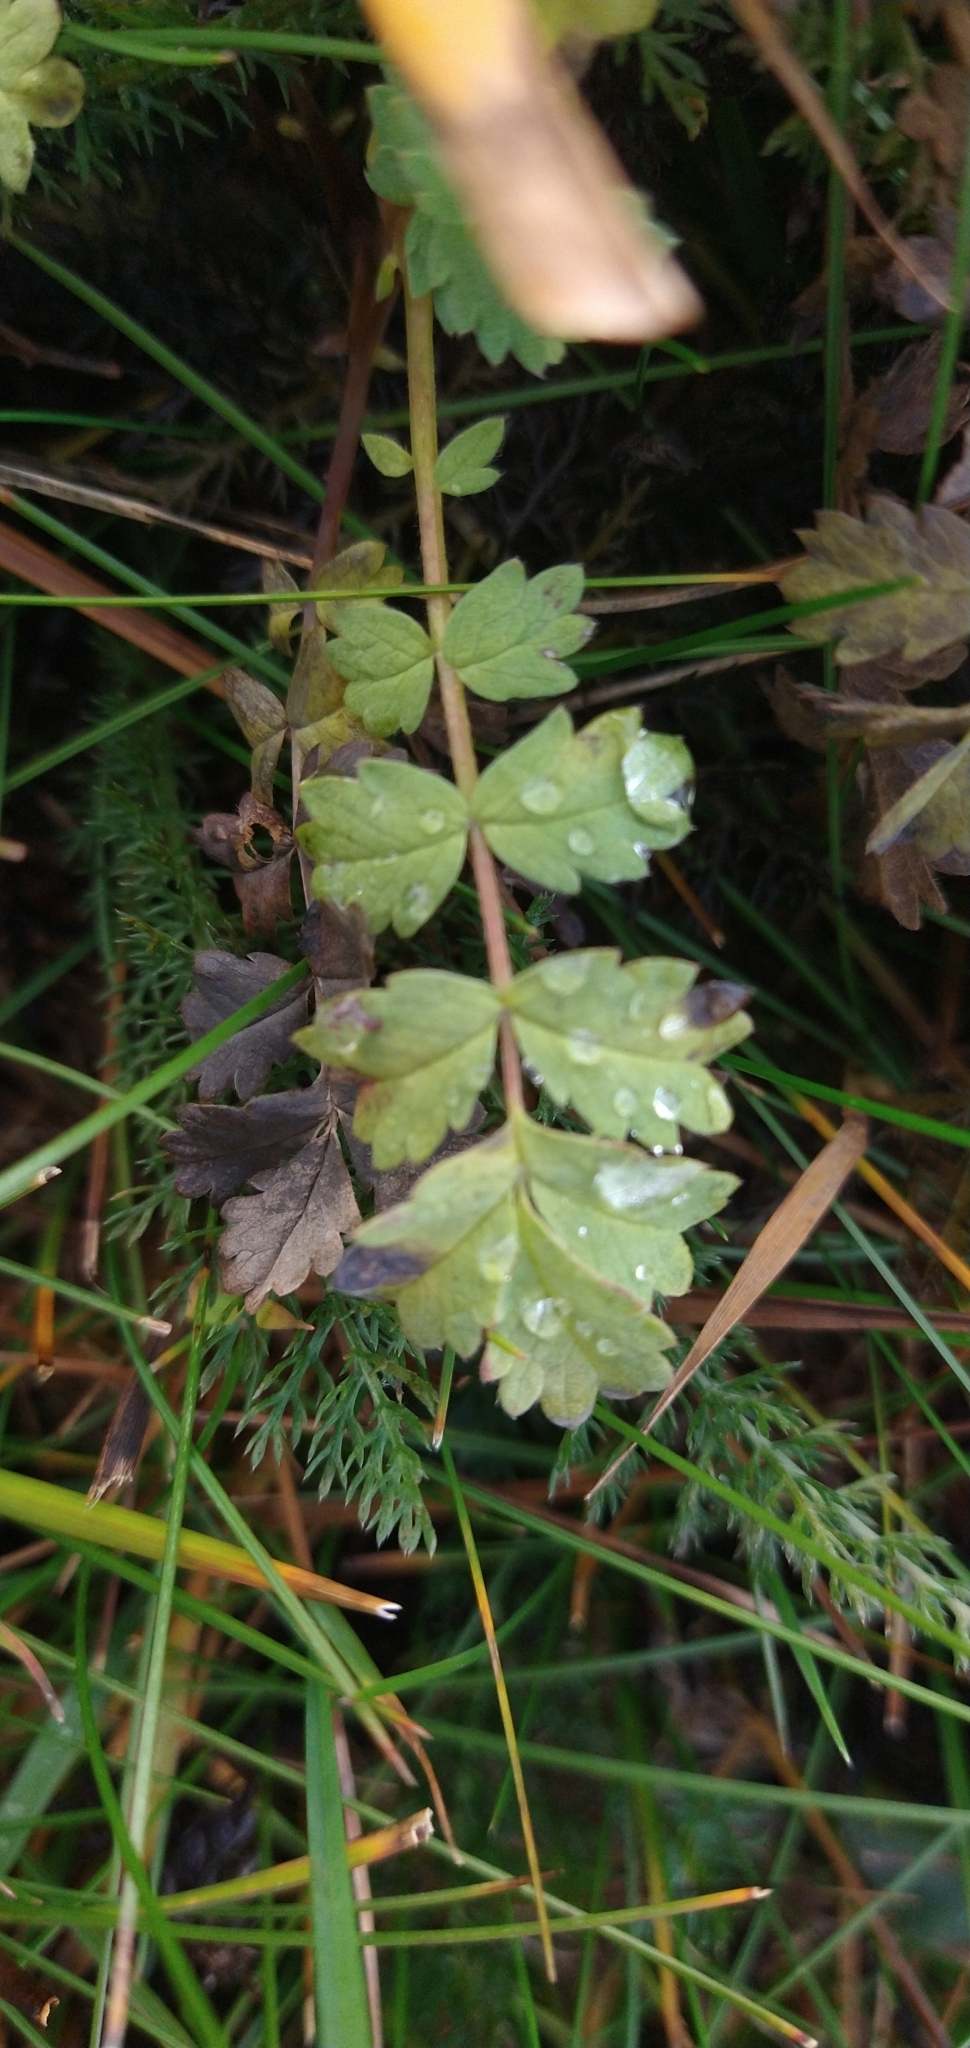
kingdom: Plantae
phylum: Tracheophyta
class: Magnoliopsida
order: Rosales
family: Rosaceae
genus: Acaena
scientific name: Acaena magellanica
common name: New zealand burr
